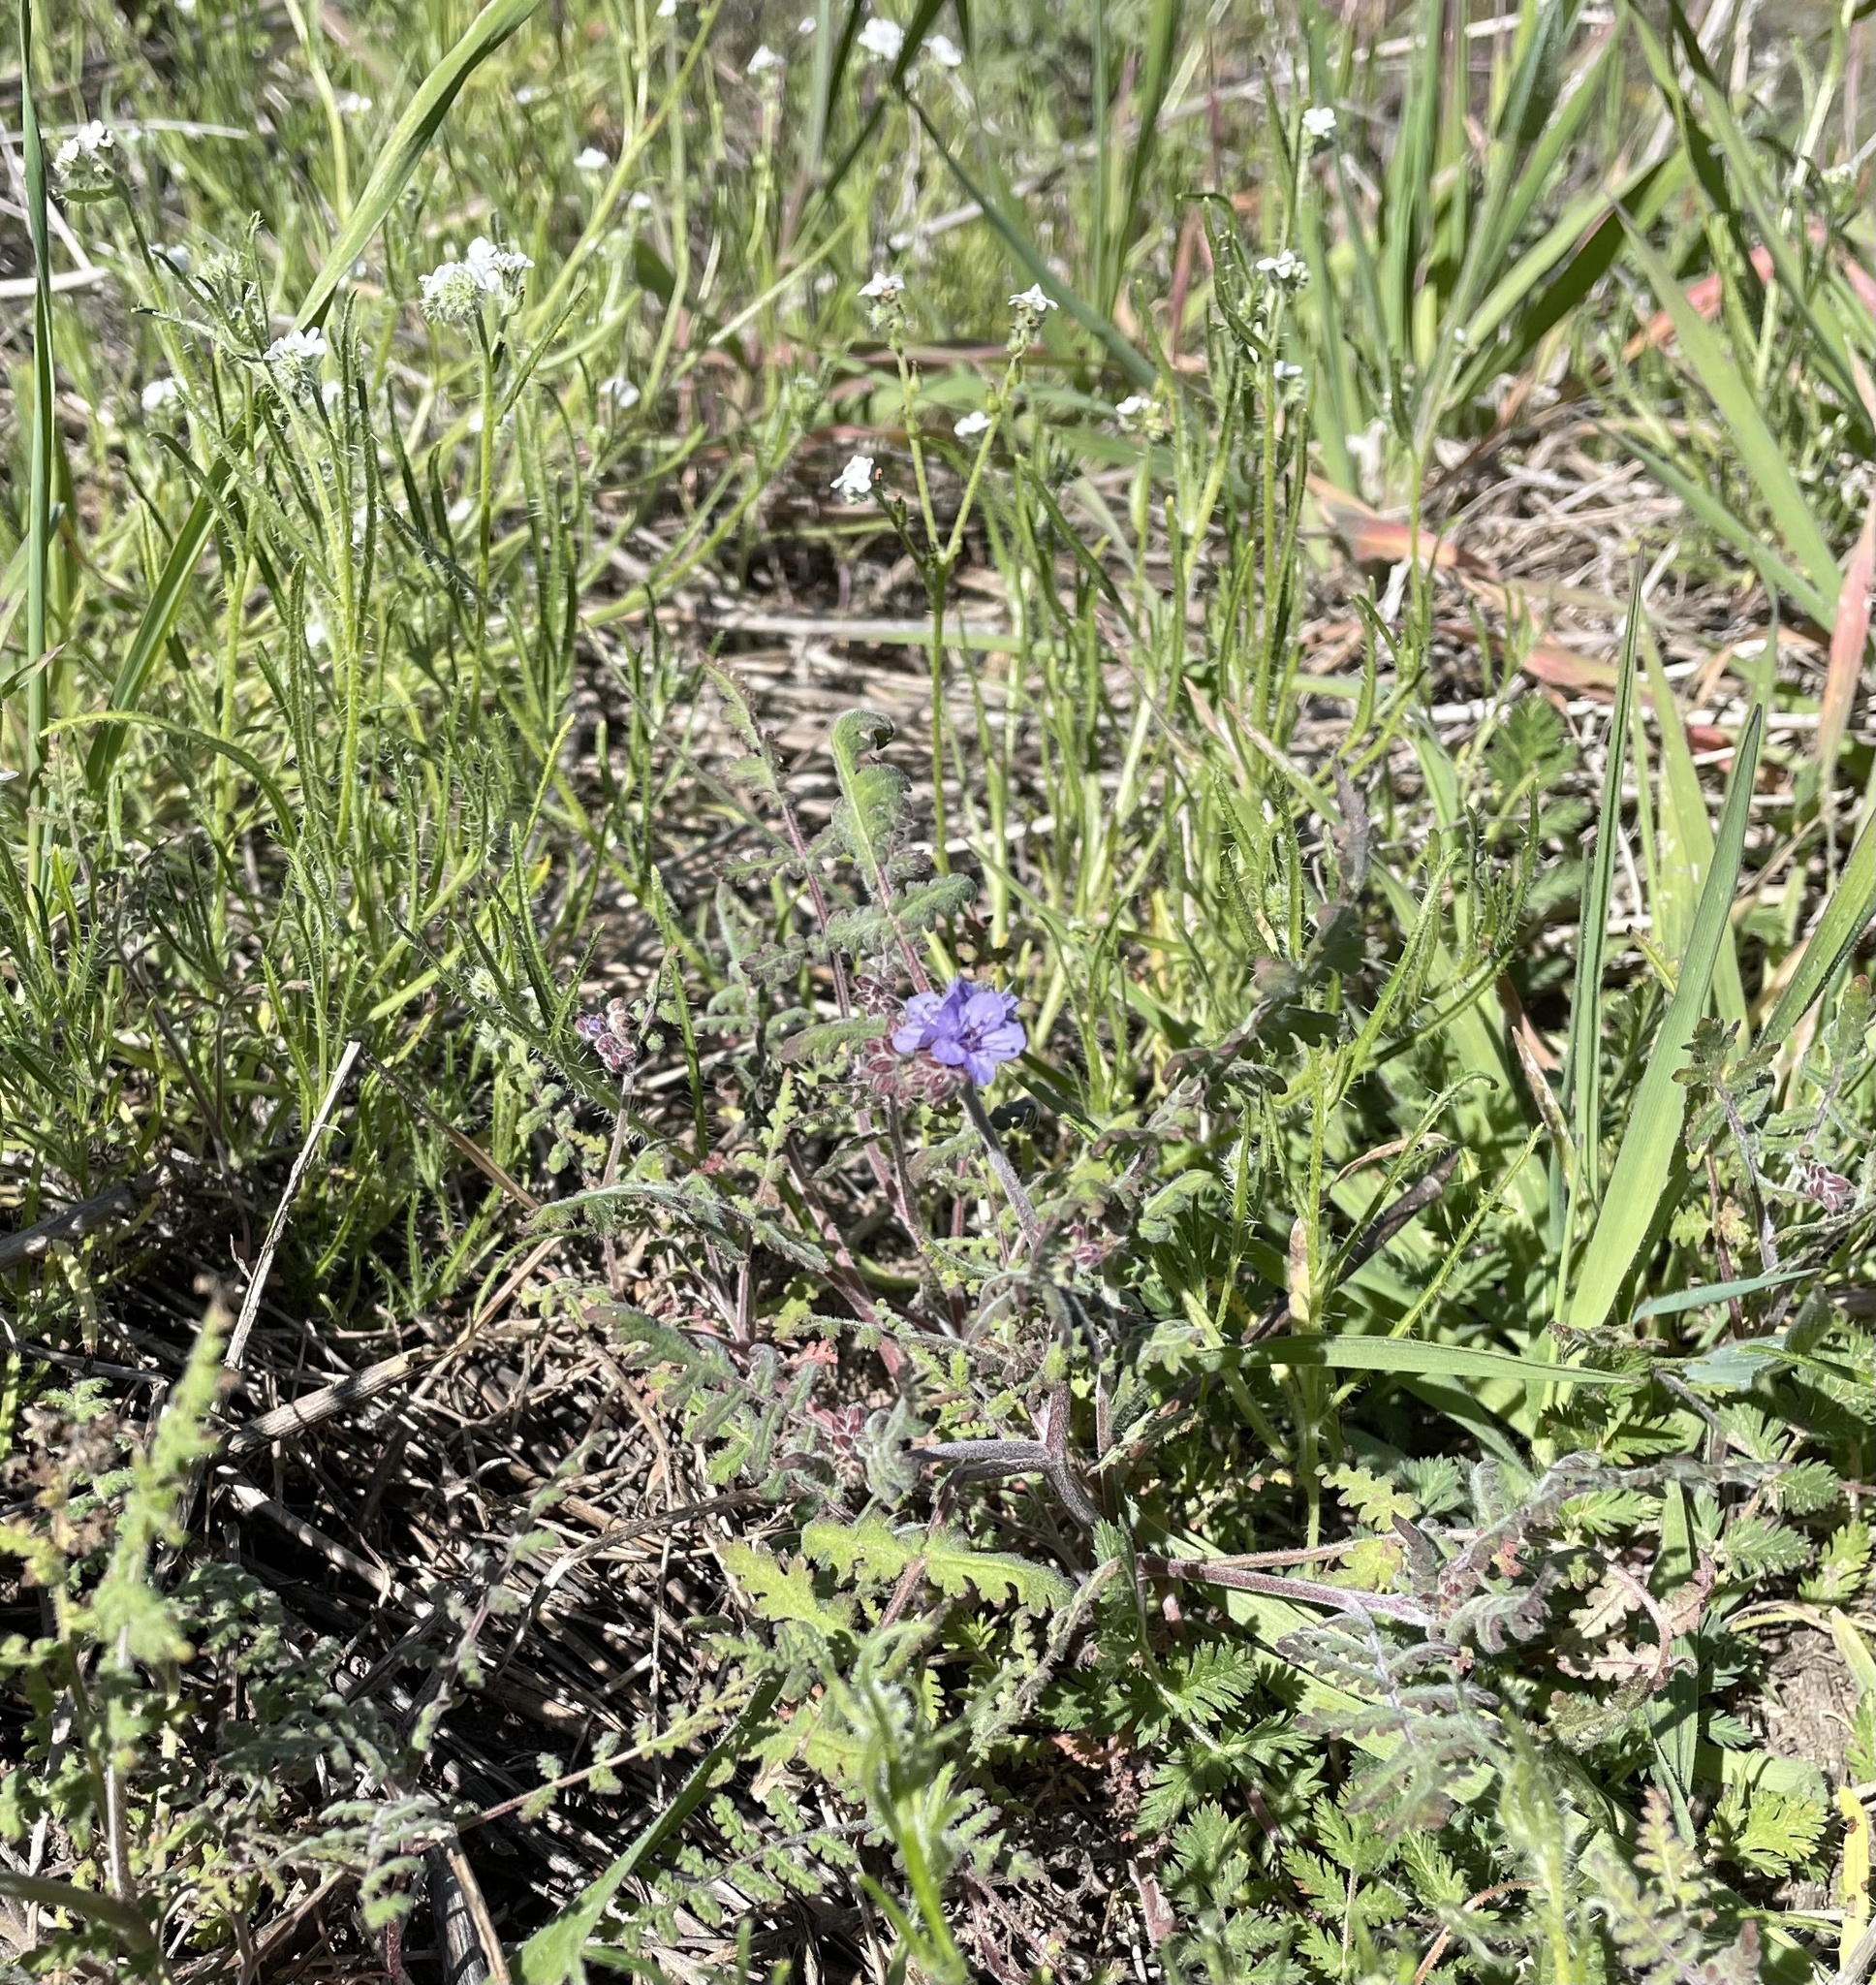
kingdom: Plantae
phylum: Tracheophyta
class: Magnoliopsida
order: Boraginales
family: Hydrophyllaceae
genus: Phacelia
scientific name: Phacelia distans
